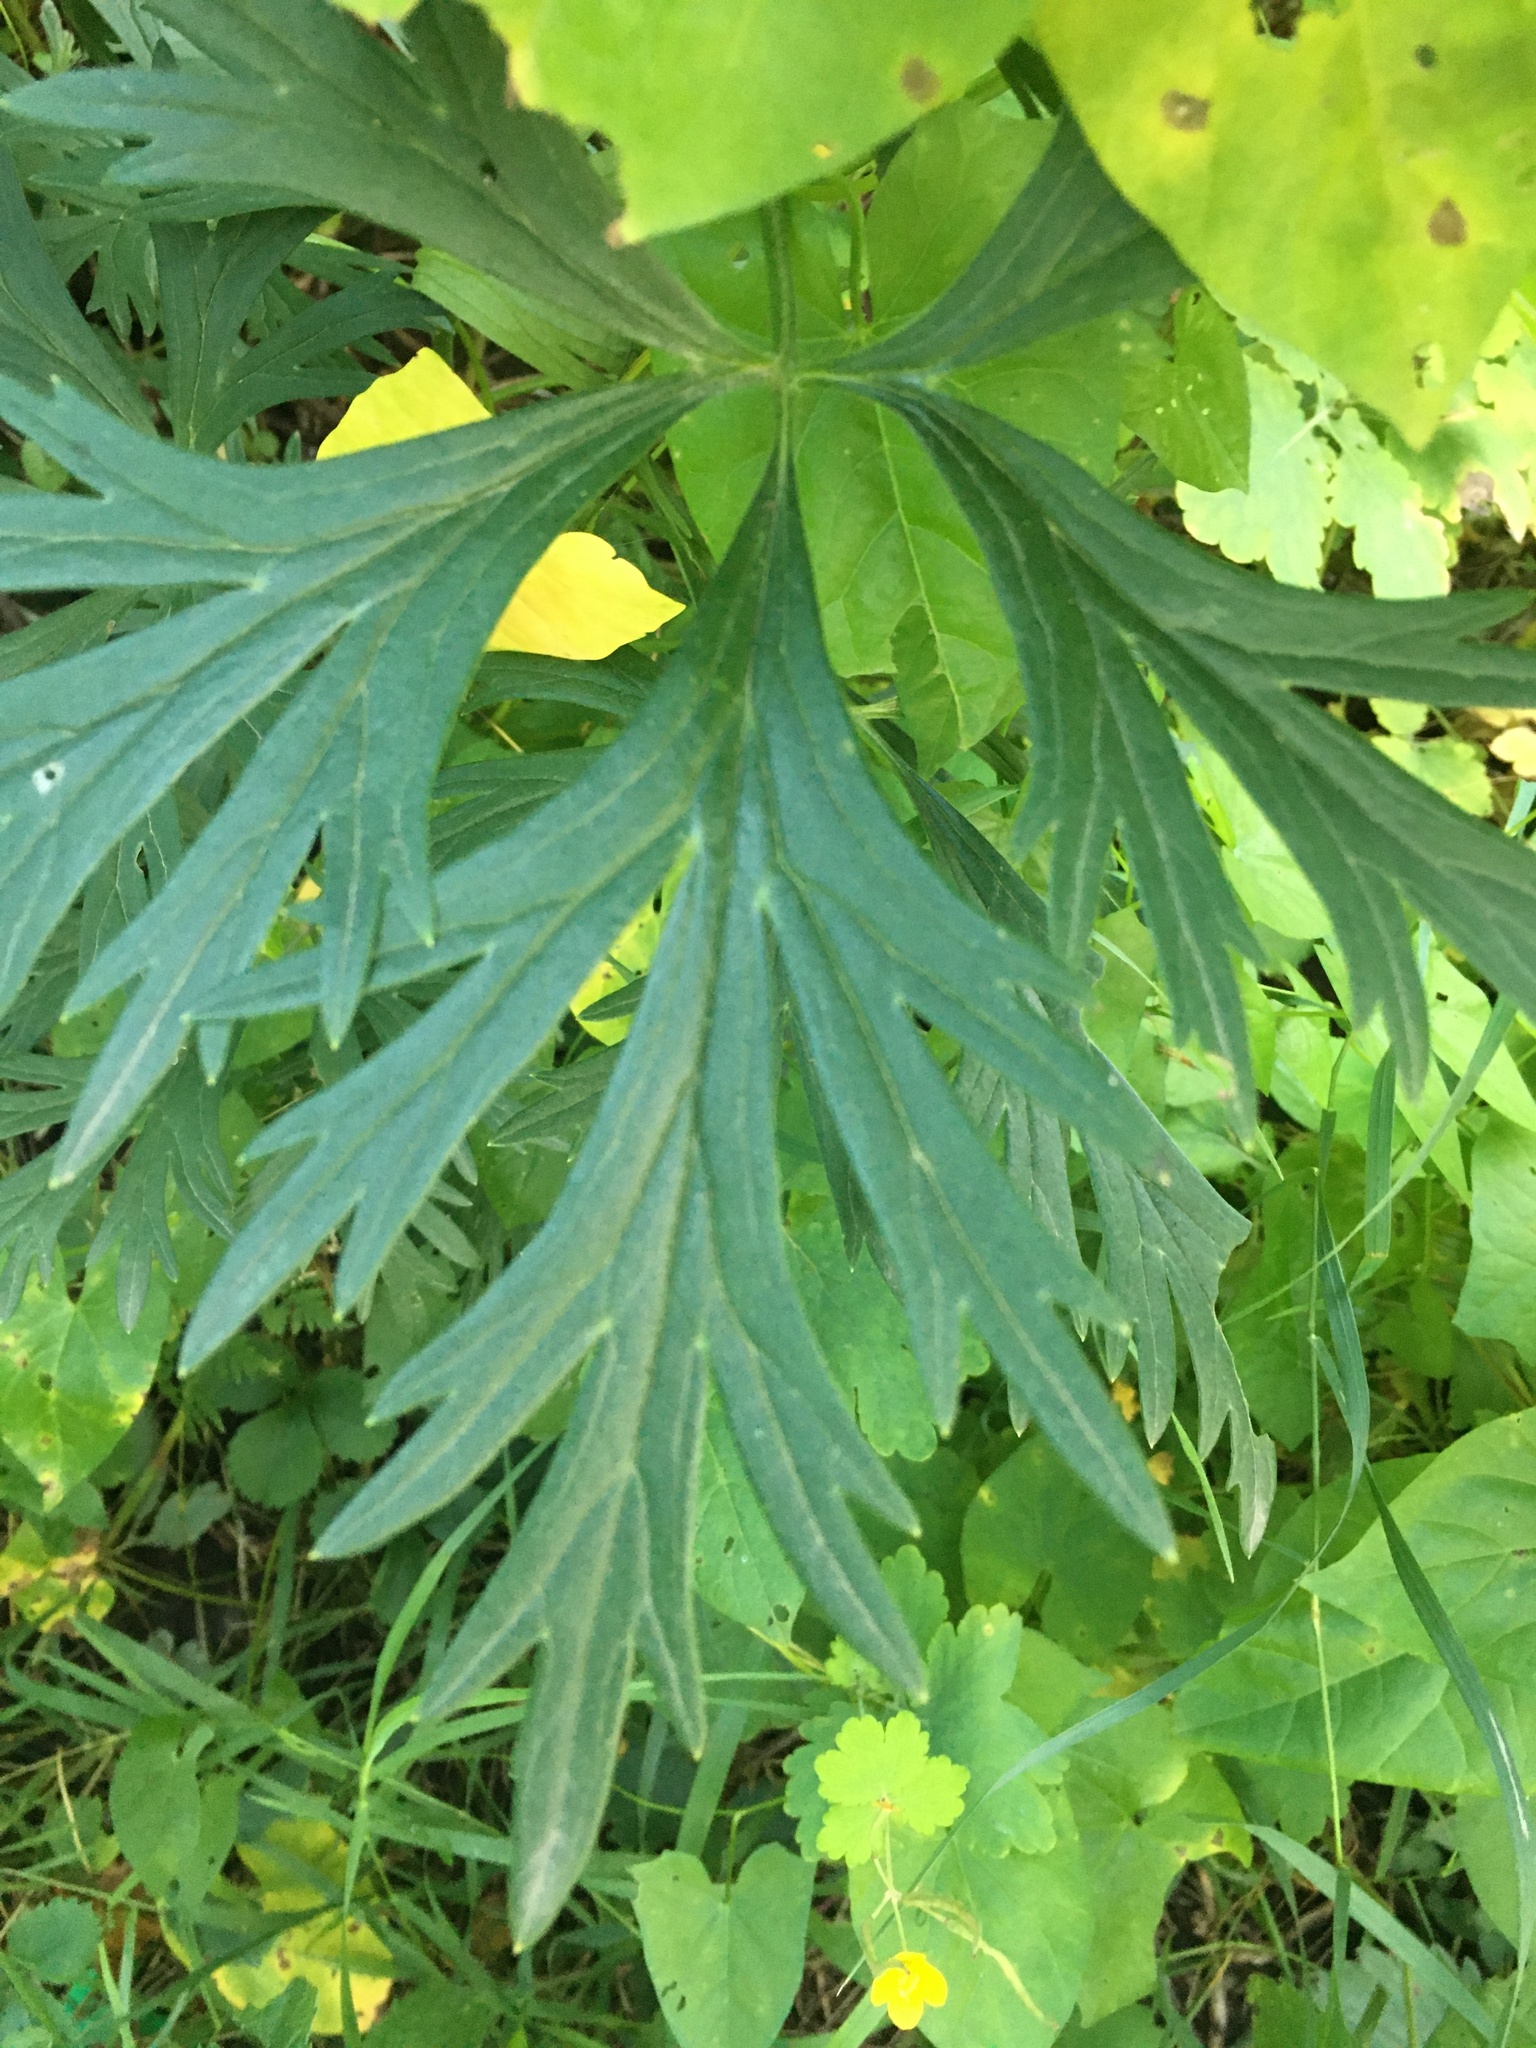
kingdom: Plantae
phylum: Tracheophyta
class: Magnoliopsida
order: Ranunculales
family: Ranunculaceae
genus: Aconitum
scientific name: Aconitum cammarum
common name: Hybrid monk's-hood
